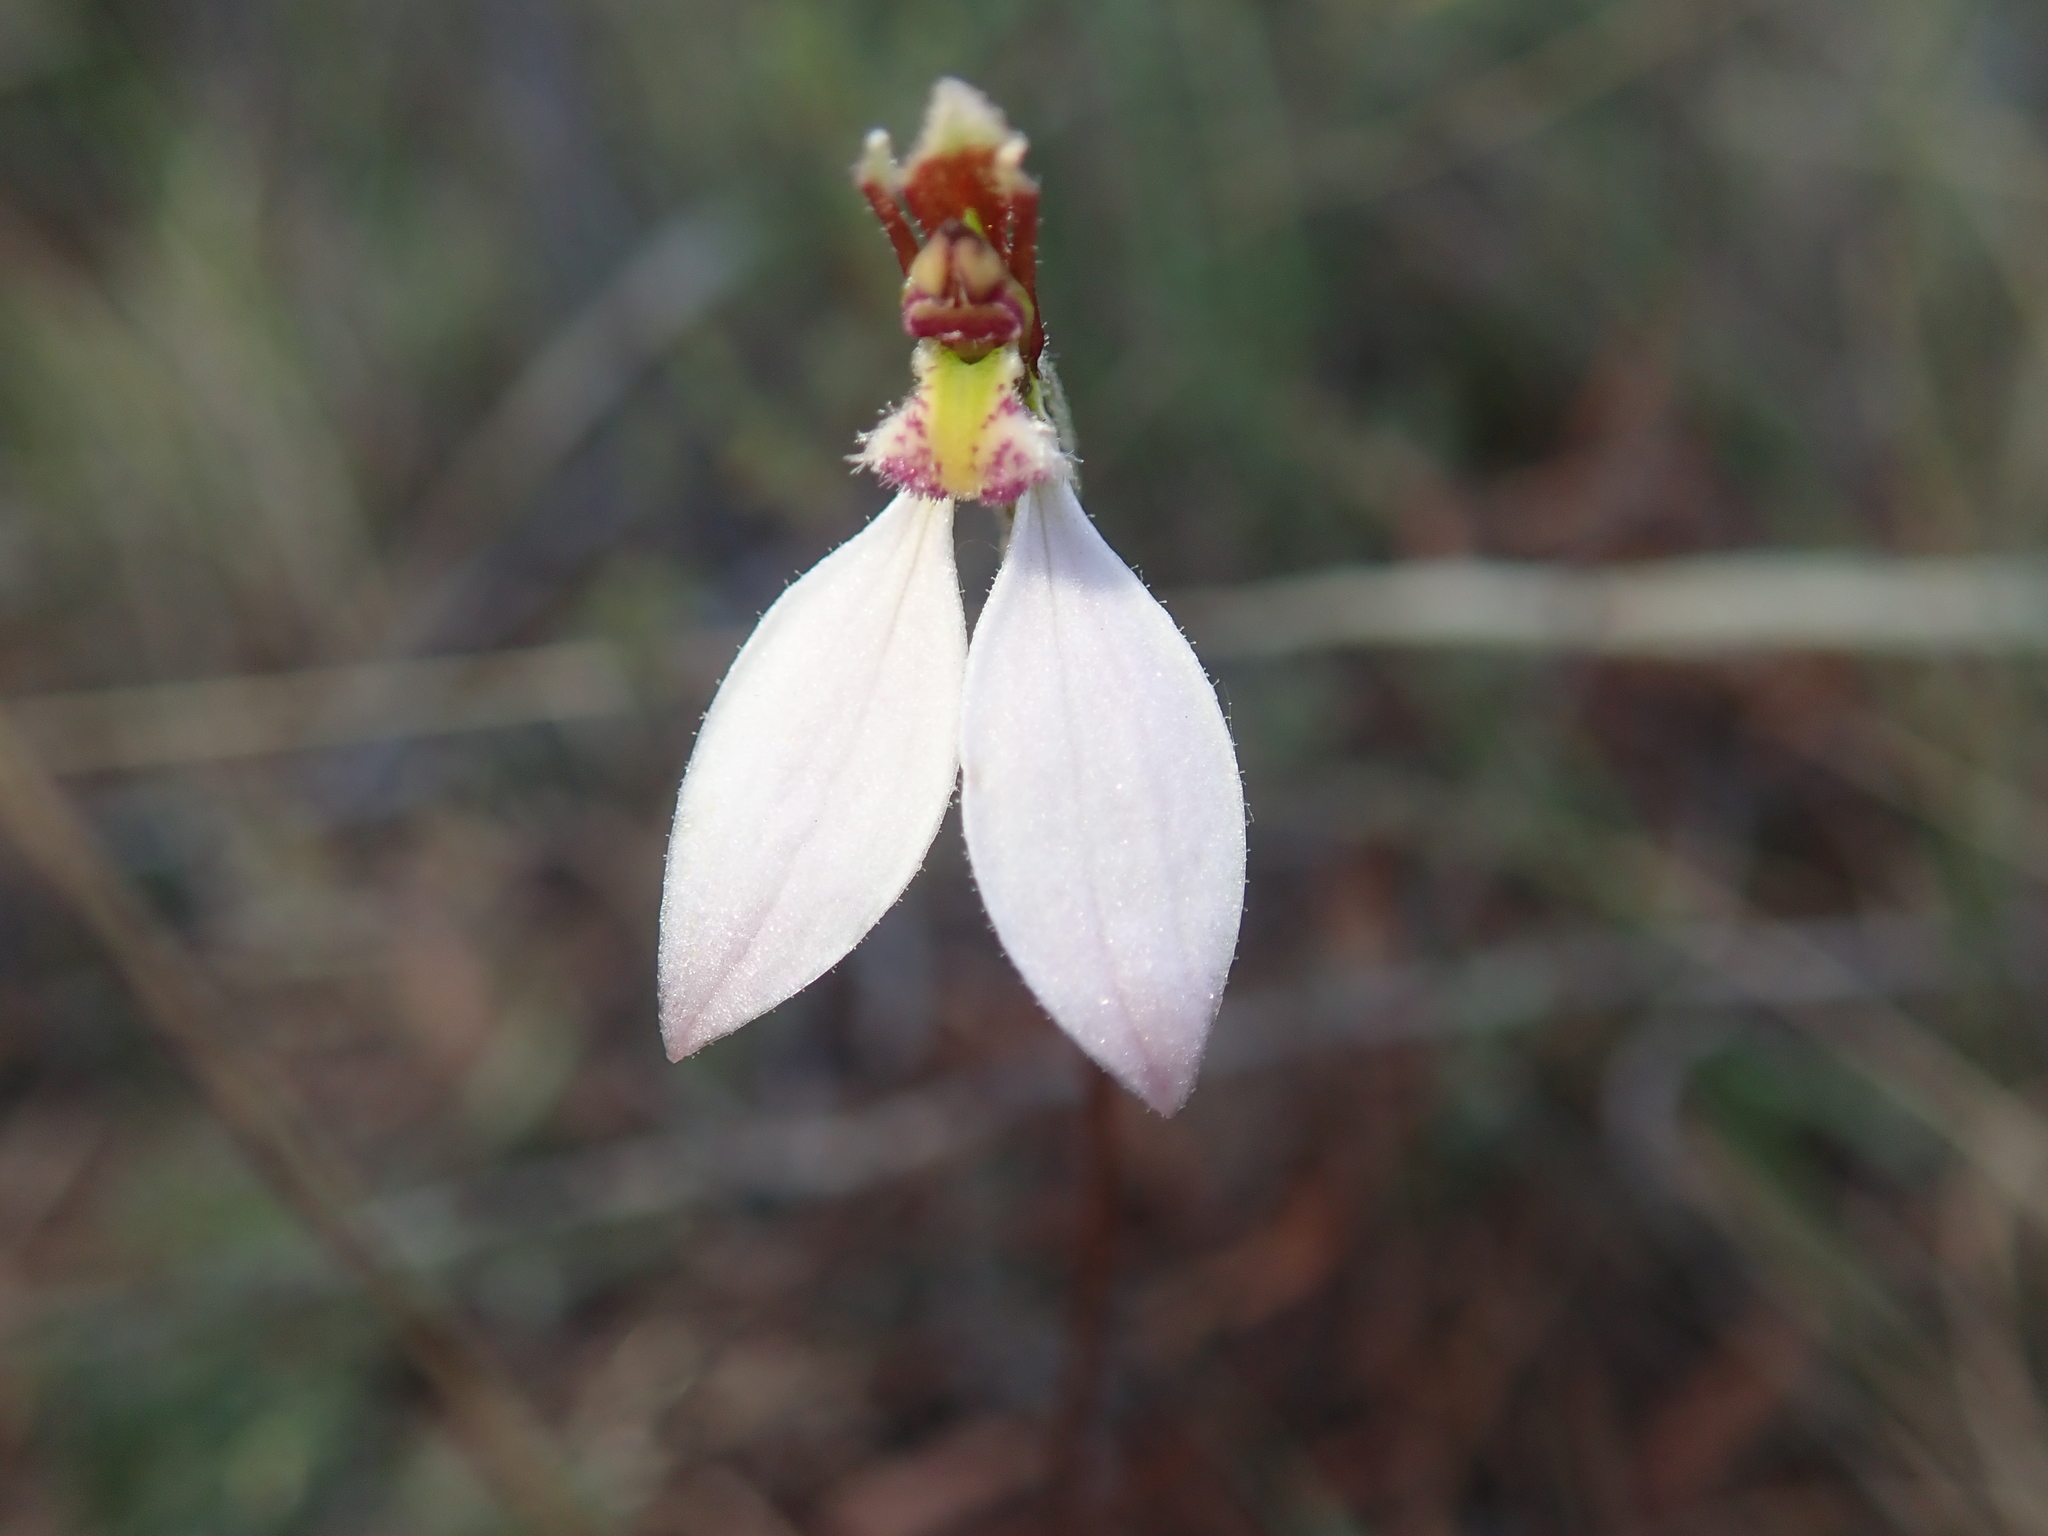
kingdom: Plantae
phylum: Tracheophyta
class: Liliopsida
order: Asparagales
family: Orchidaceae
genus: Eriochilus
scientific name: Eriochilus cucullatus
